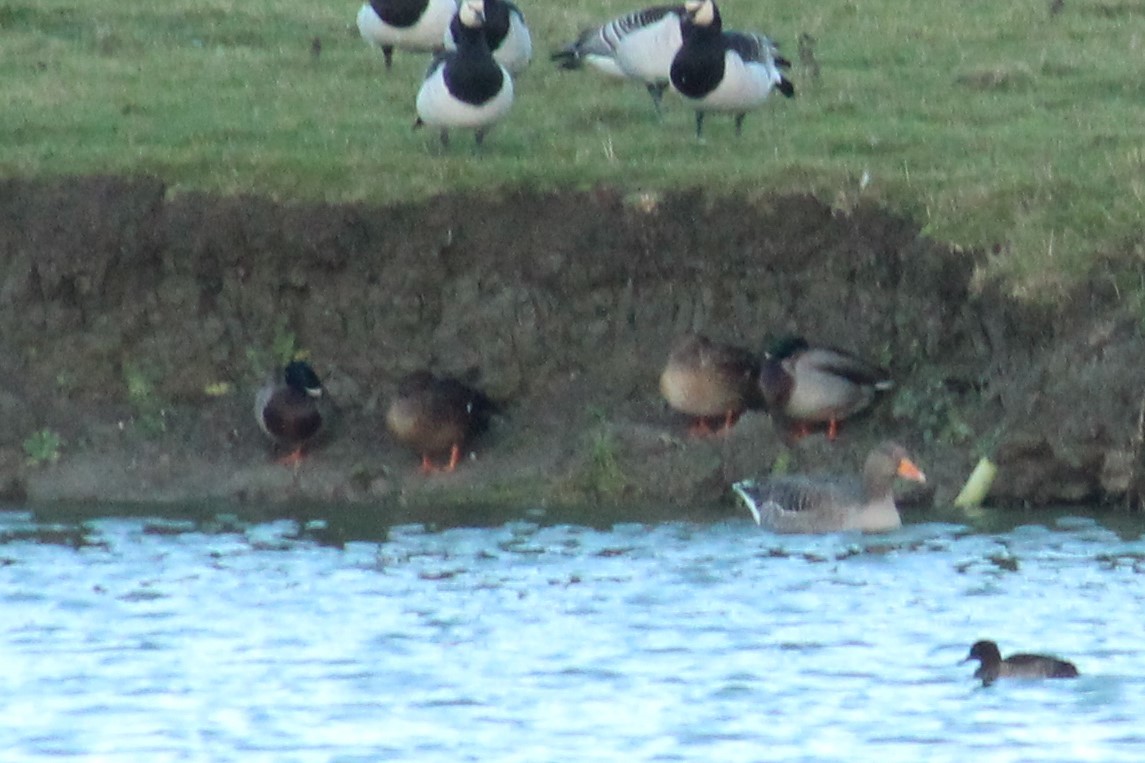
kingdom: Animalia
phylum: Chordata
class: Aves
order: Anseriformes
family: Anatidae
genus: Anas
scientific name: Anas platyrhynchos
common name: Mallard
